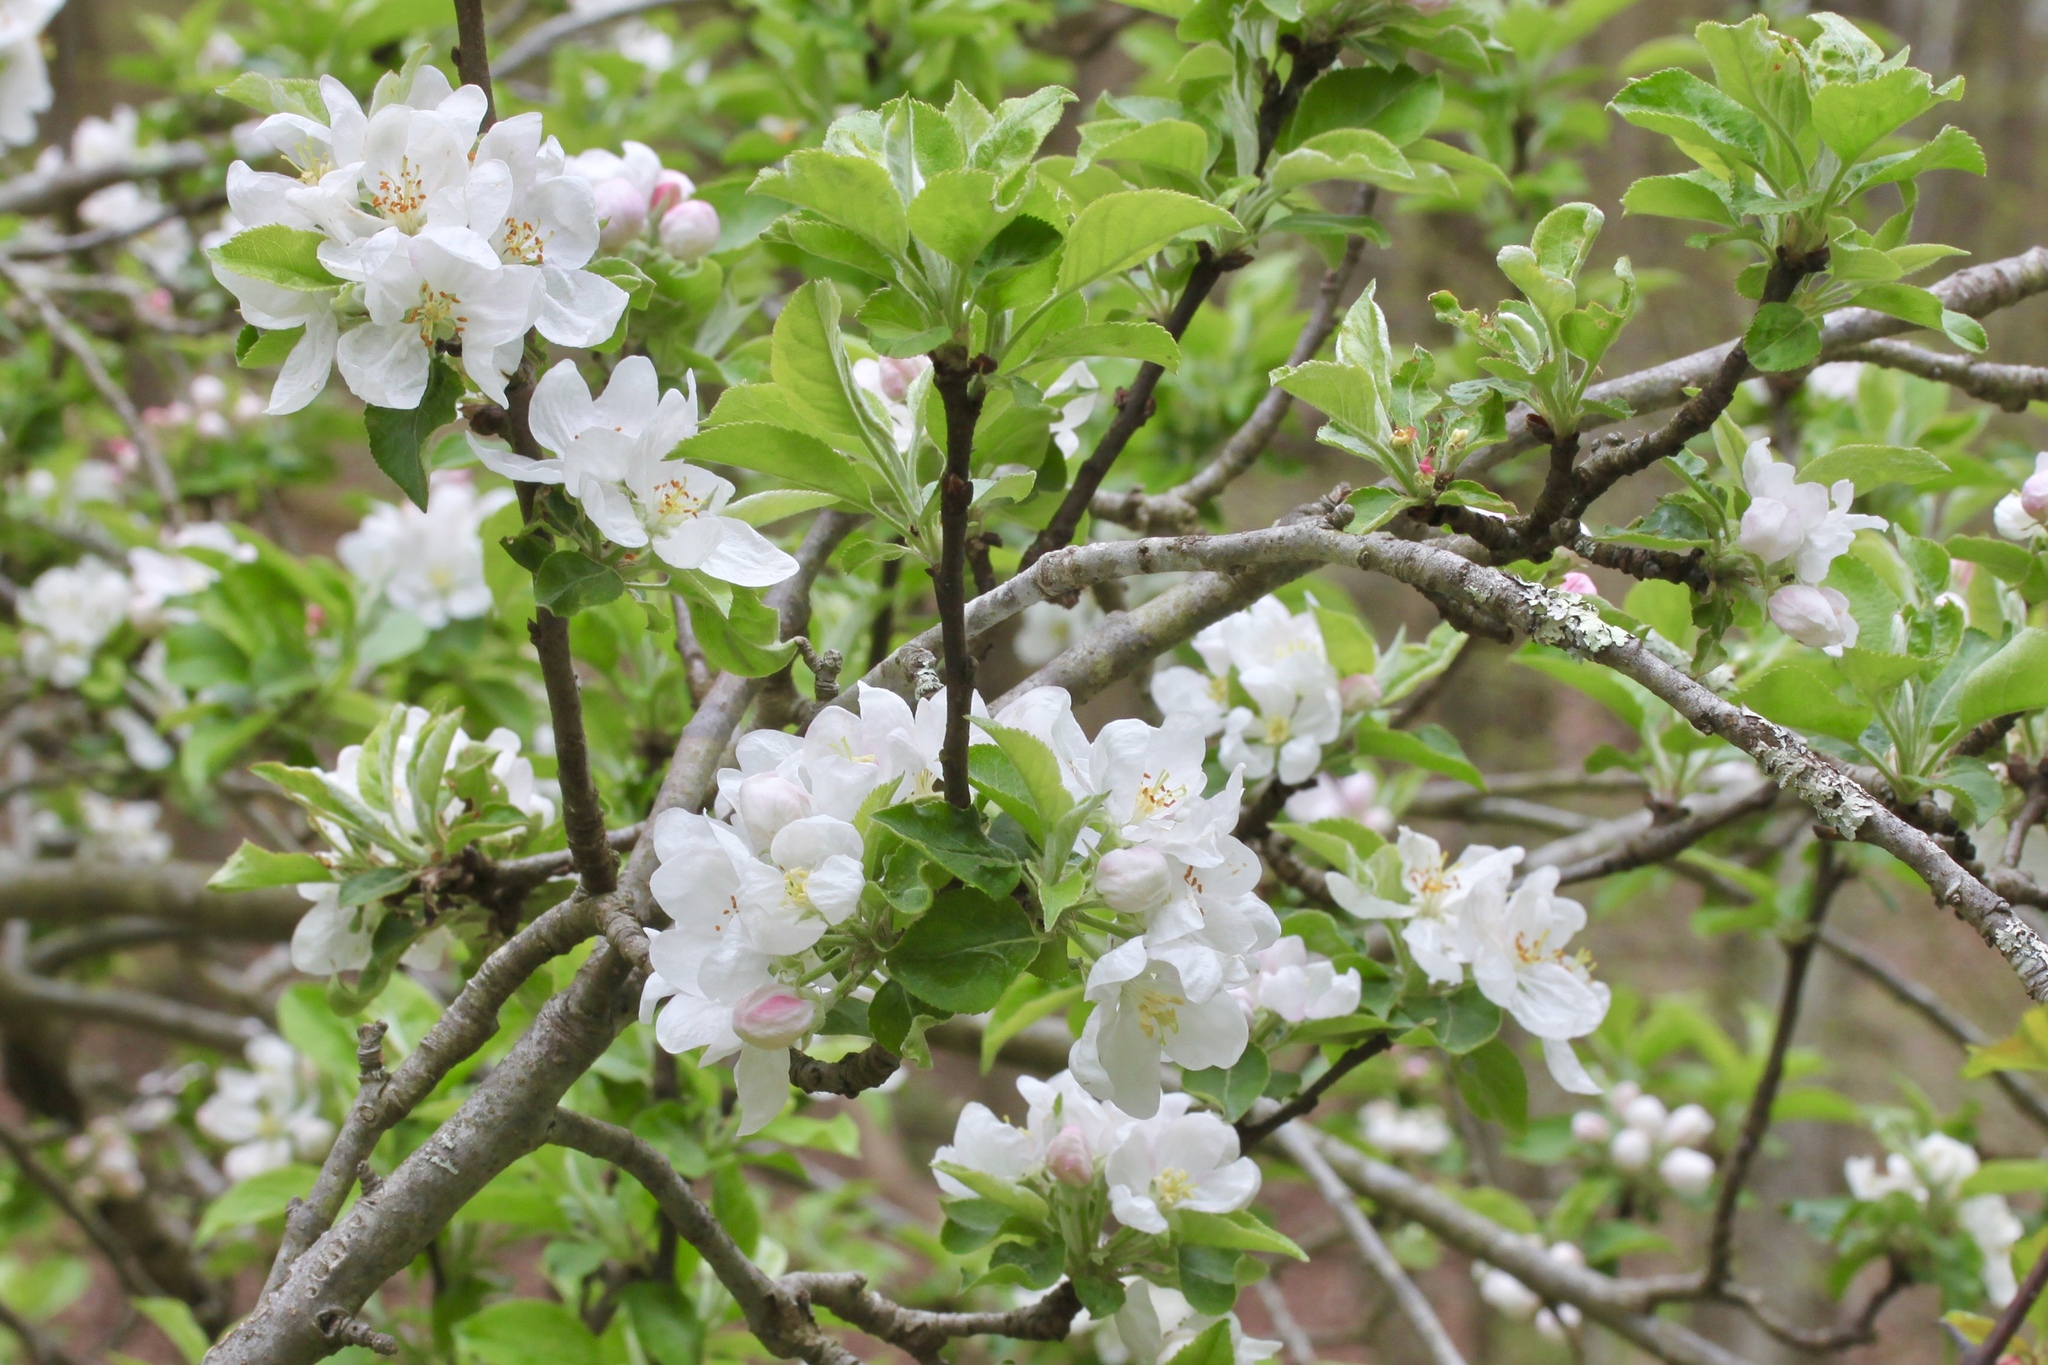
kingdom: Plantae
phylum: Tracheophyta
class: Magnoliopsida
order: Rosales
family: Rosaceae
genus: Malus
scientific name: Malus domestica
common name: Apple
